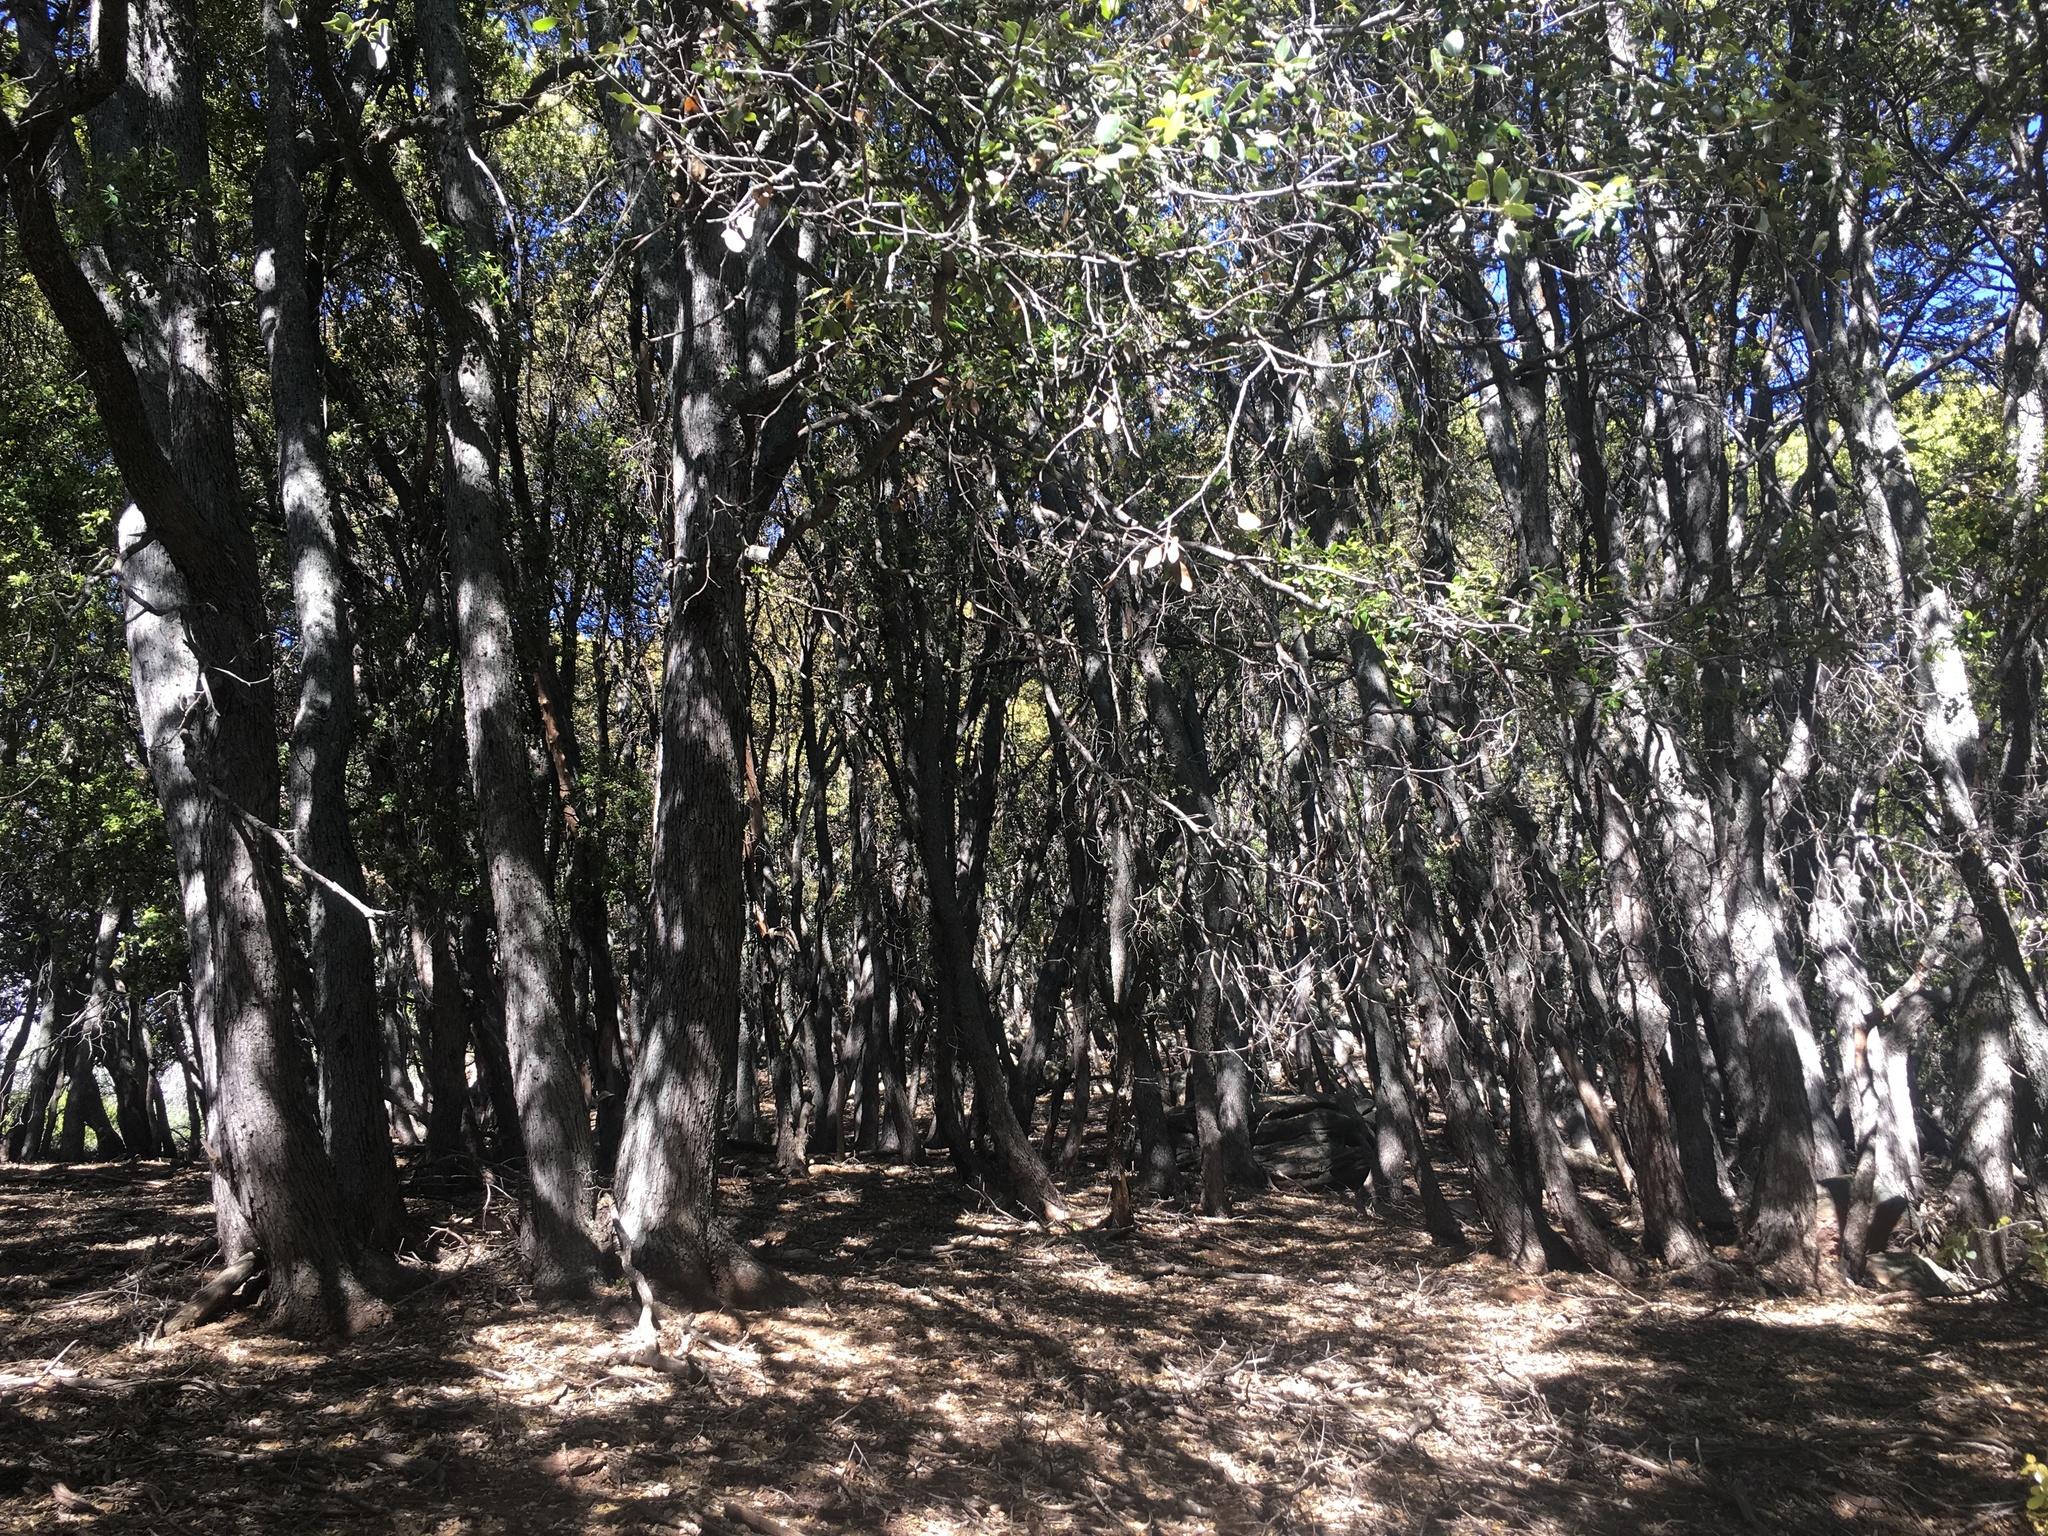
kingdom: Plantae
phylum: Tracheophyta
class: Magnoliopsida
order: Fagales
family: Fagaceae
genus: Quercus
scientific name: Quercus chrysolepis
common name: Canyon live oak
